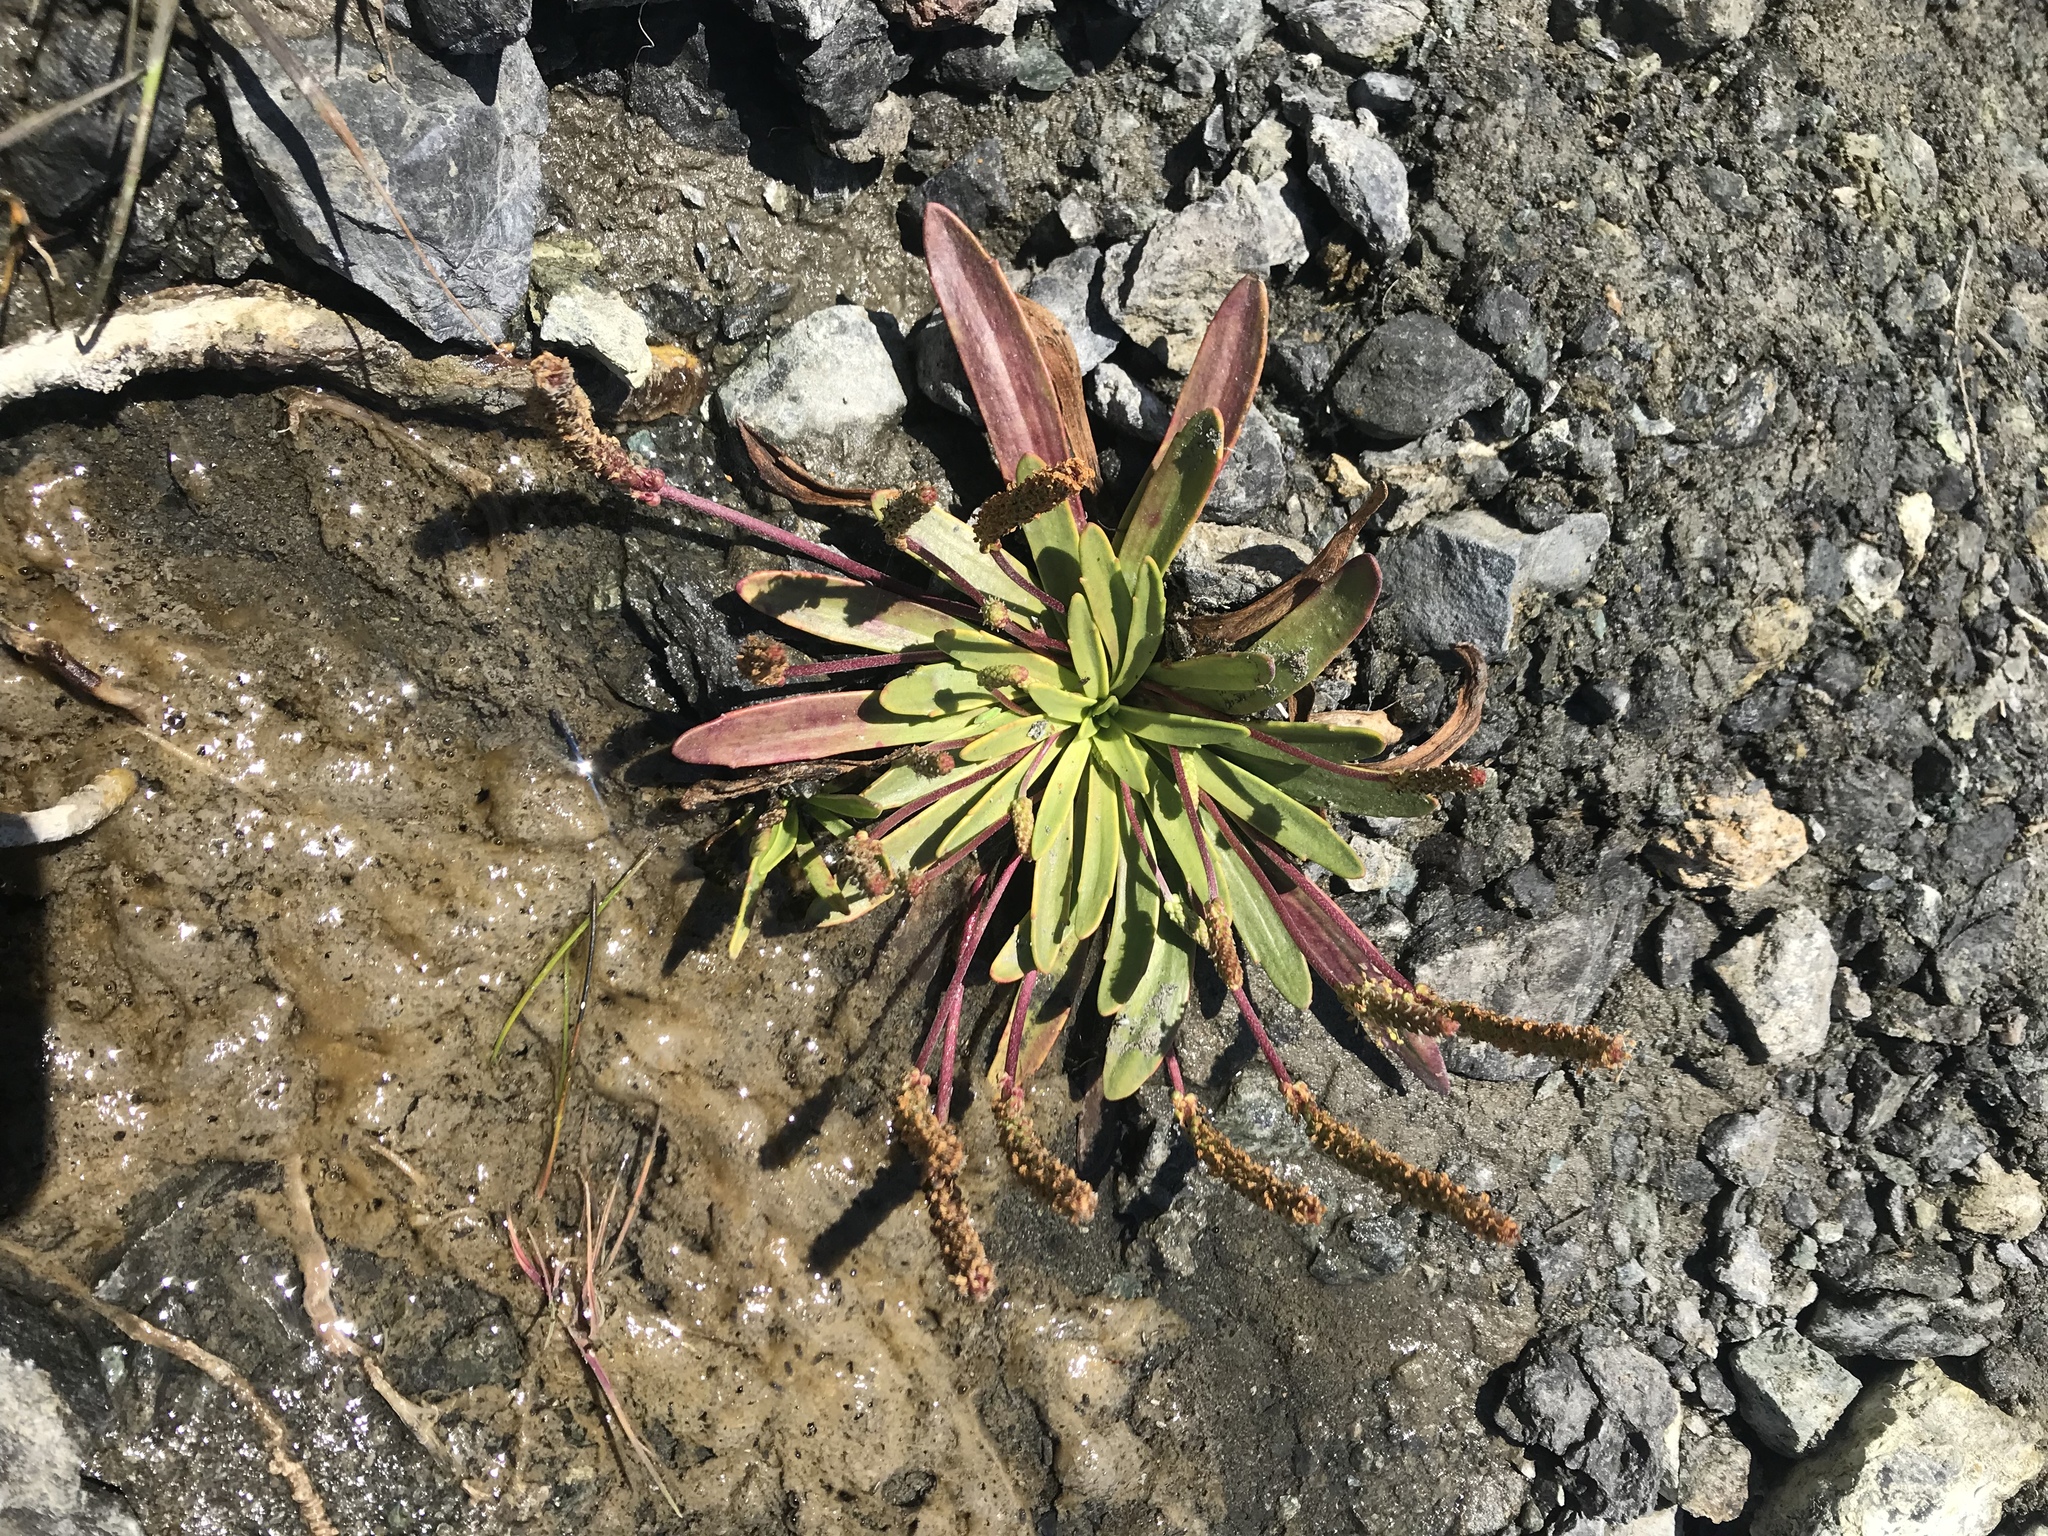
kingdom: Plantae
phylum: Tracheophyta
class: Magnoliopsida
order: Lamiales
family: Plantaginaceae
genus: Plantago
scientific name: Plantago maritima
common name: Sea plantain
